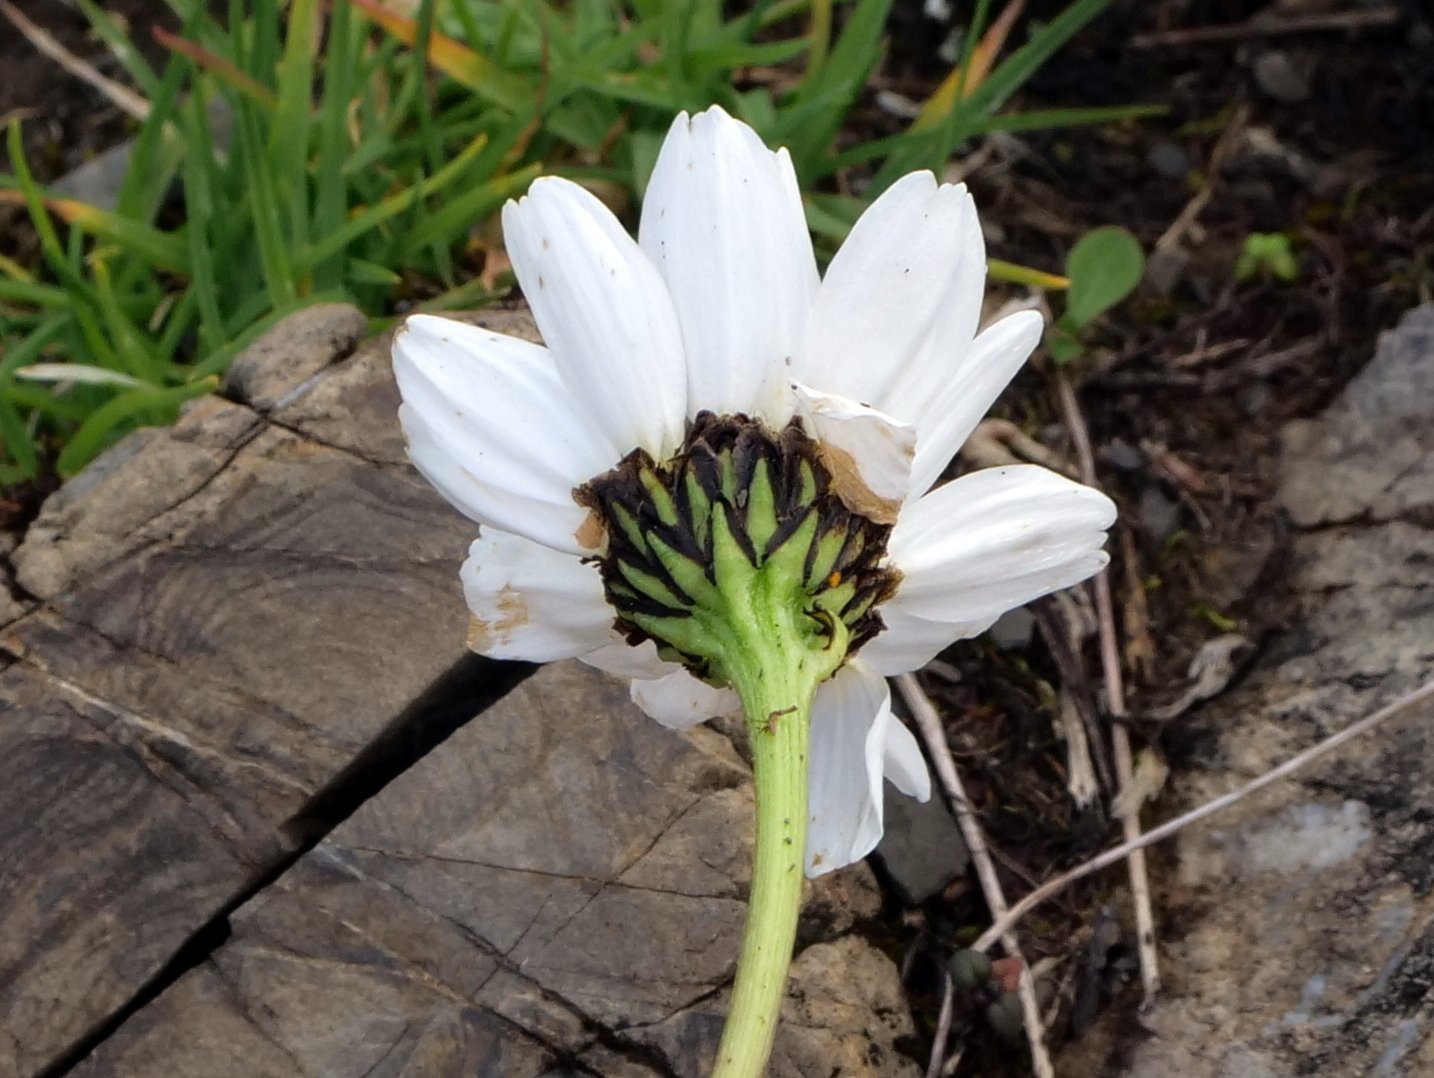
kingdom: Plantae
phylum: Tracheophyta
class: Magnoliopsida
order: Asterales
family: Asteraceae
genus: Leucanthemum
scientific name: Leucanthemum halleri
